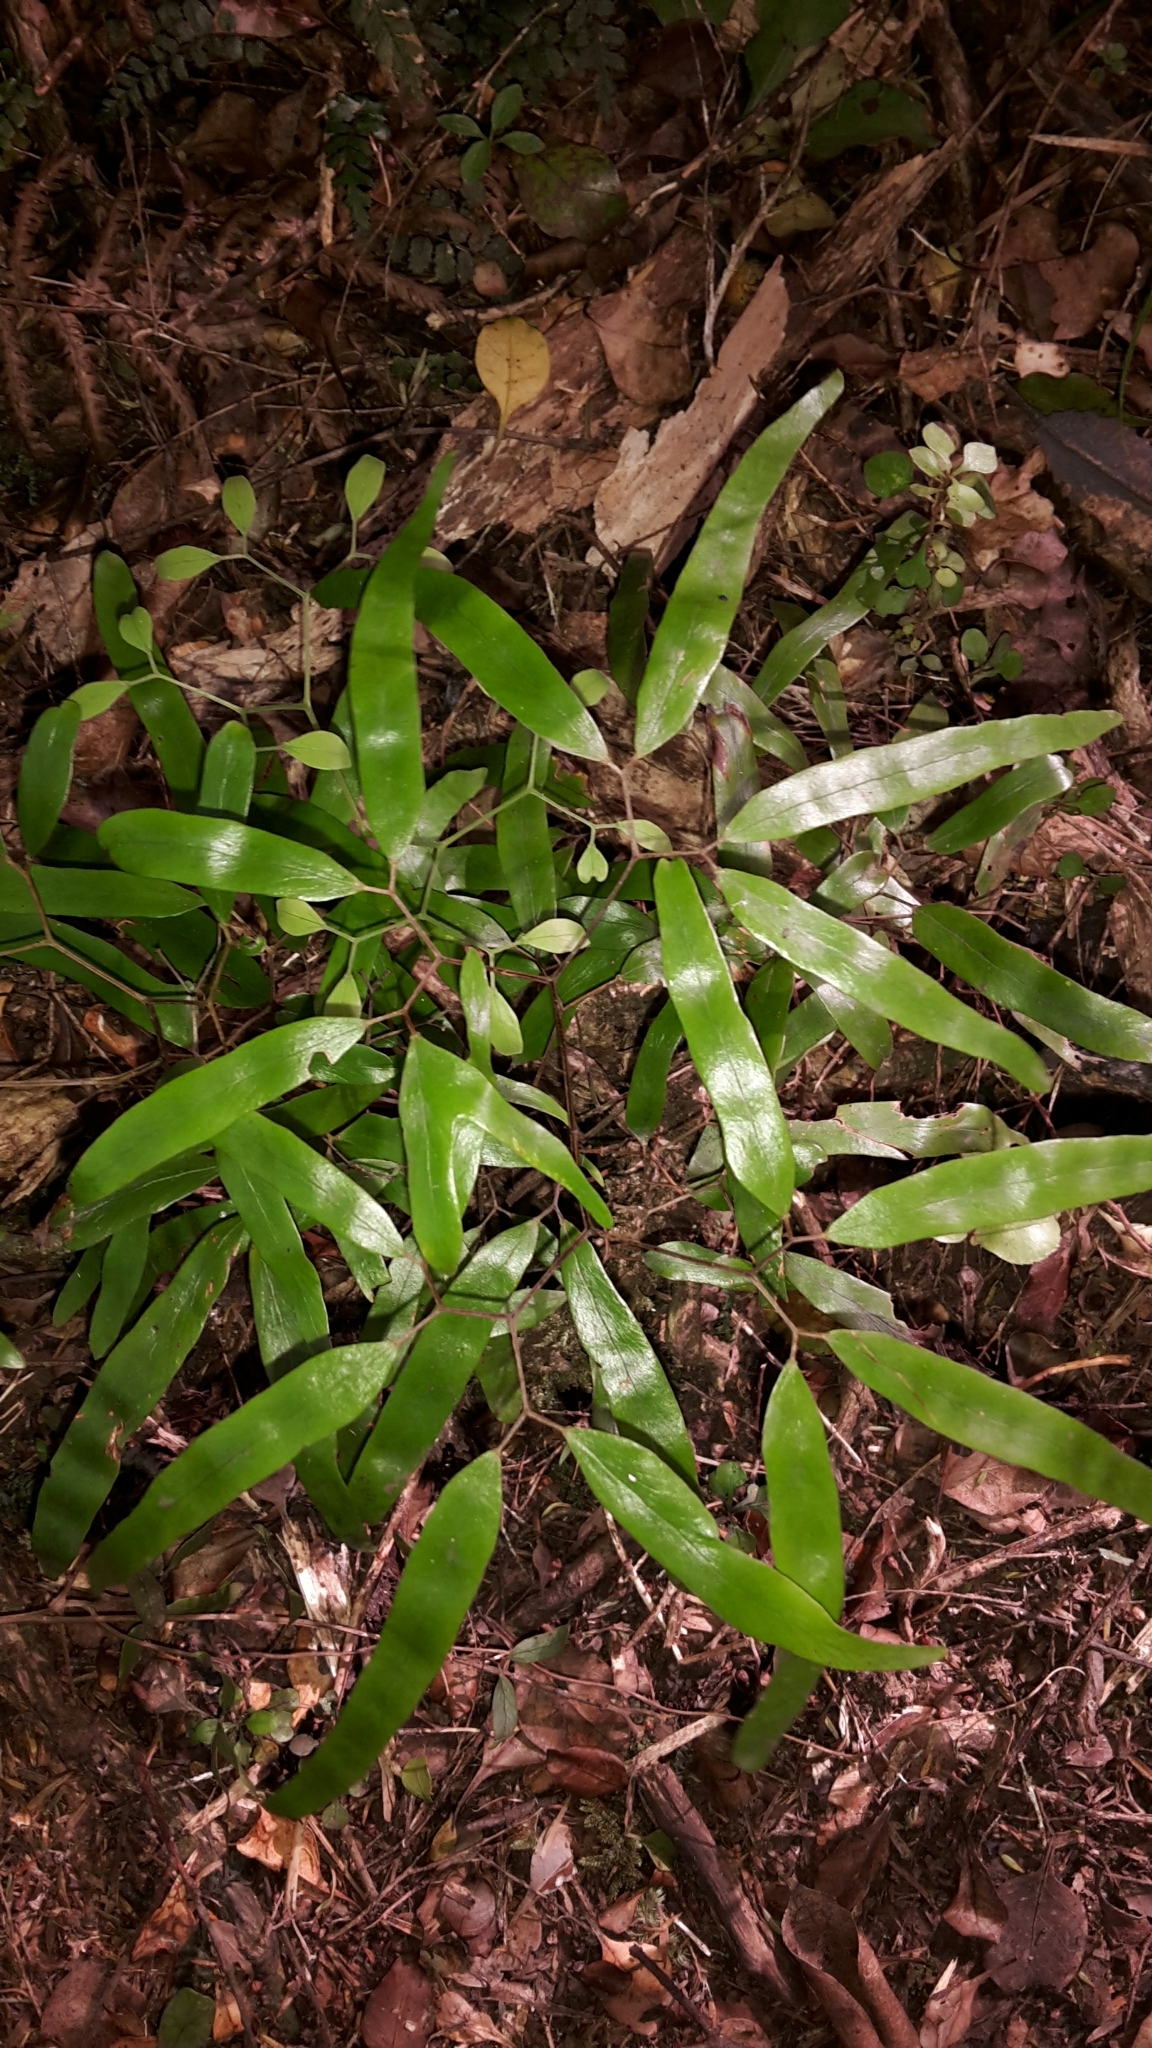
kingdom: Plantae
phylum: Tracheophyta
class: Polypodiopsida
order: Schizaeales
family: Lygodiaceae
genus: Lygodium
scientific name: Lygodium articulatum
